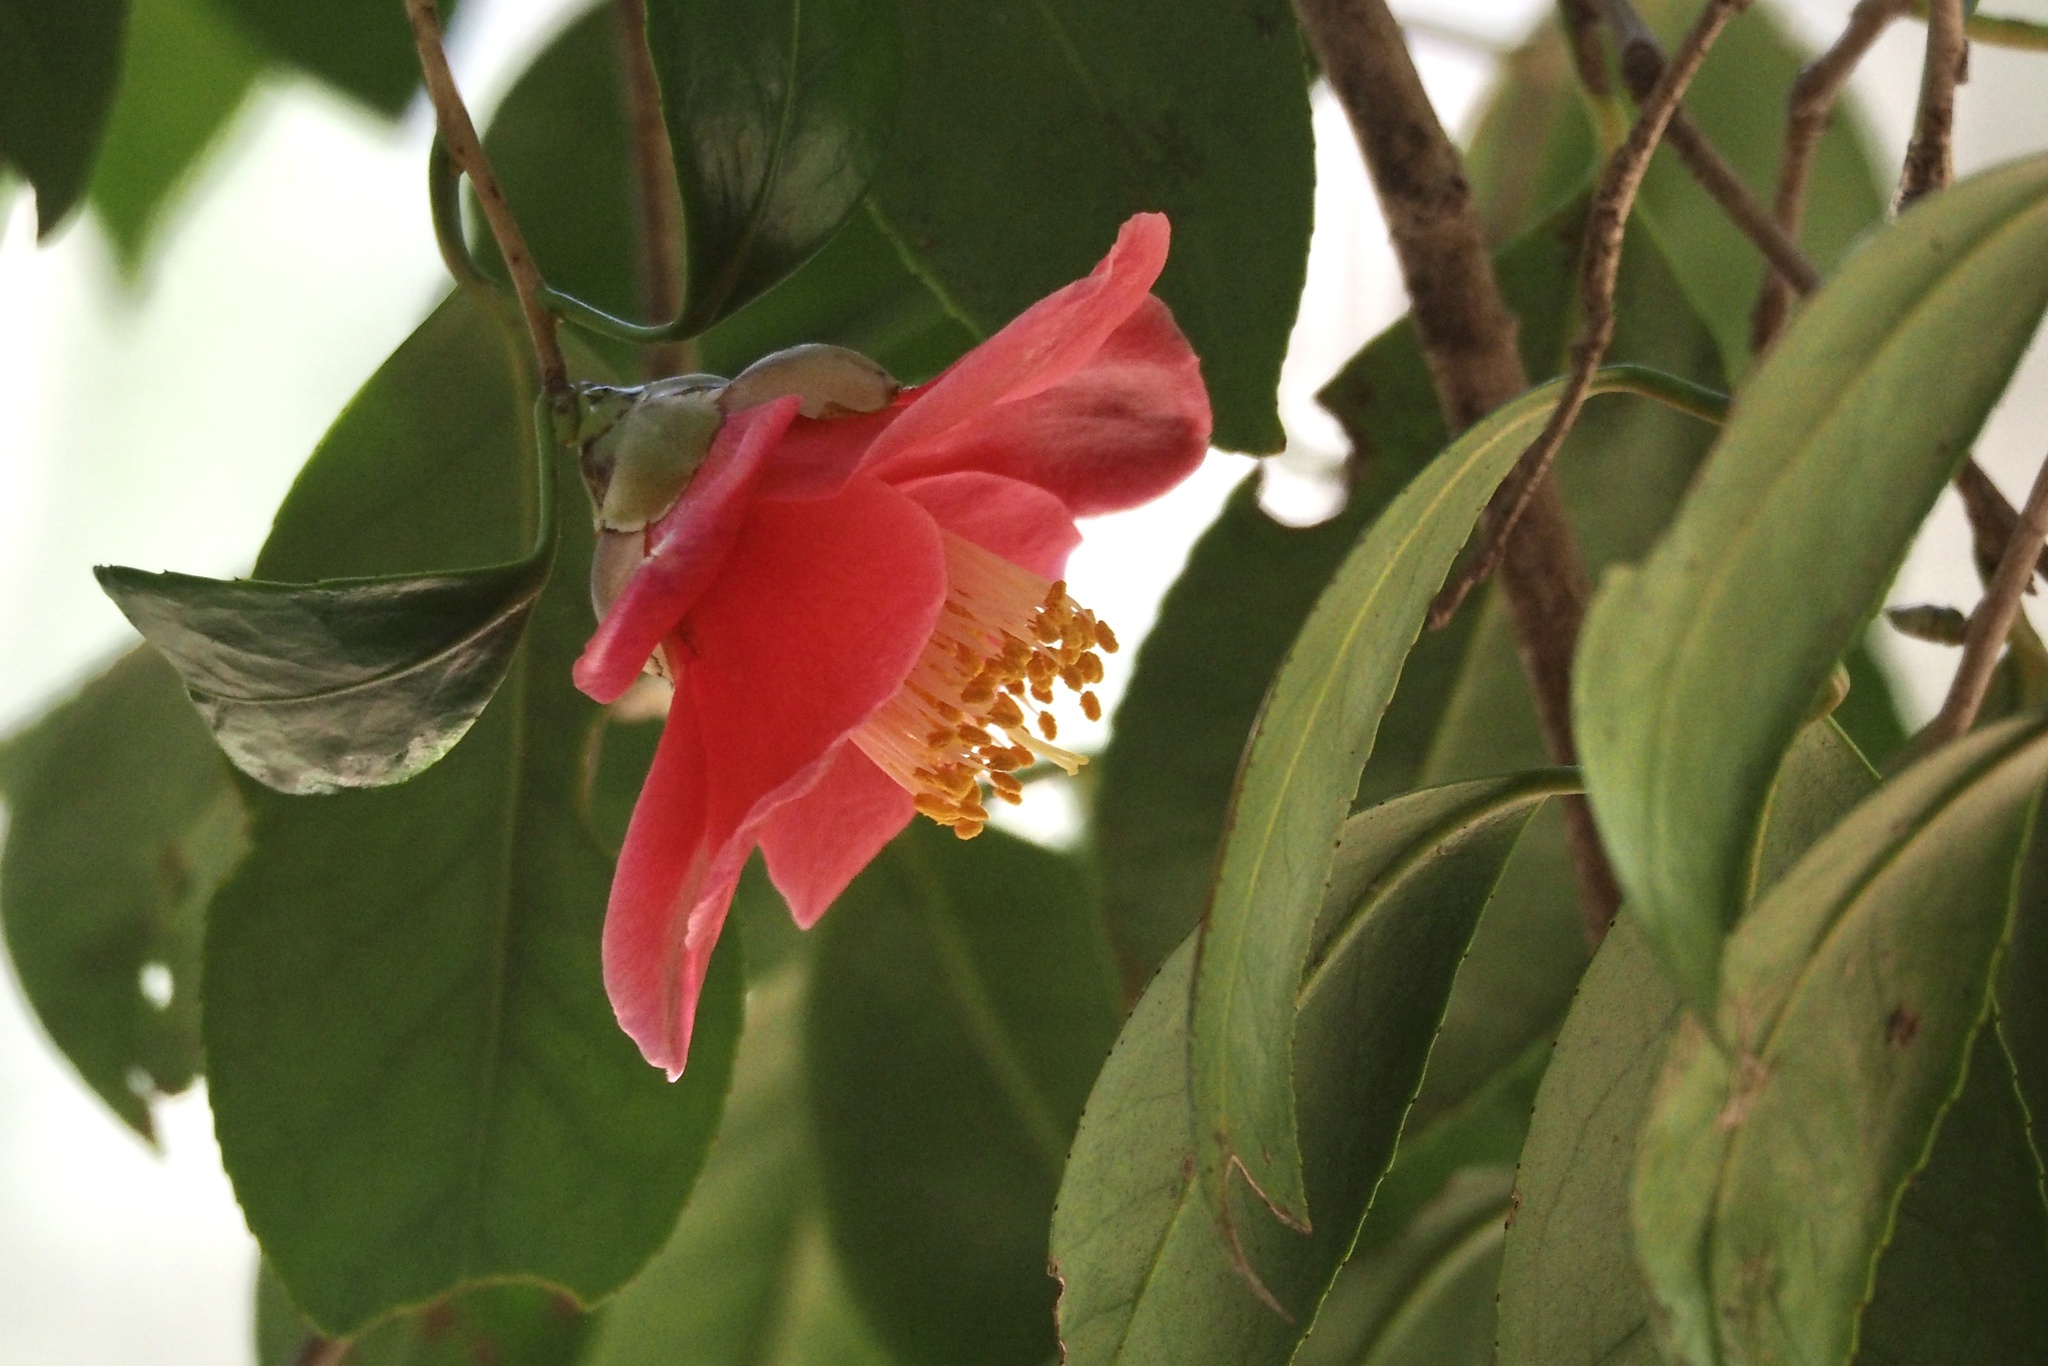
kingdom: Plantae
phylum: Tracheophyta
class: Magnoliopsida
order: Ericales
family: Theaceae
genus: Camellia
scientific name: Camellia japonica
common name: Camellia
